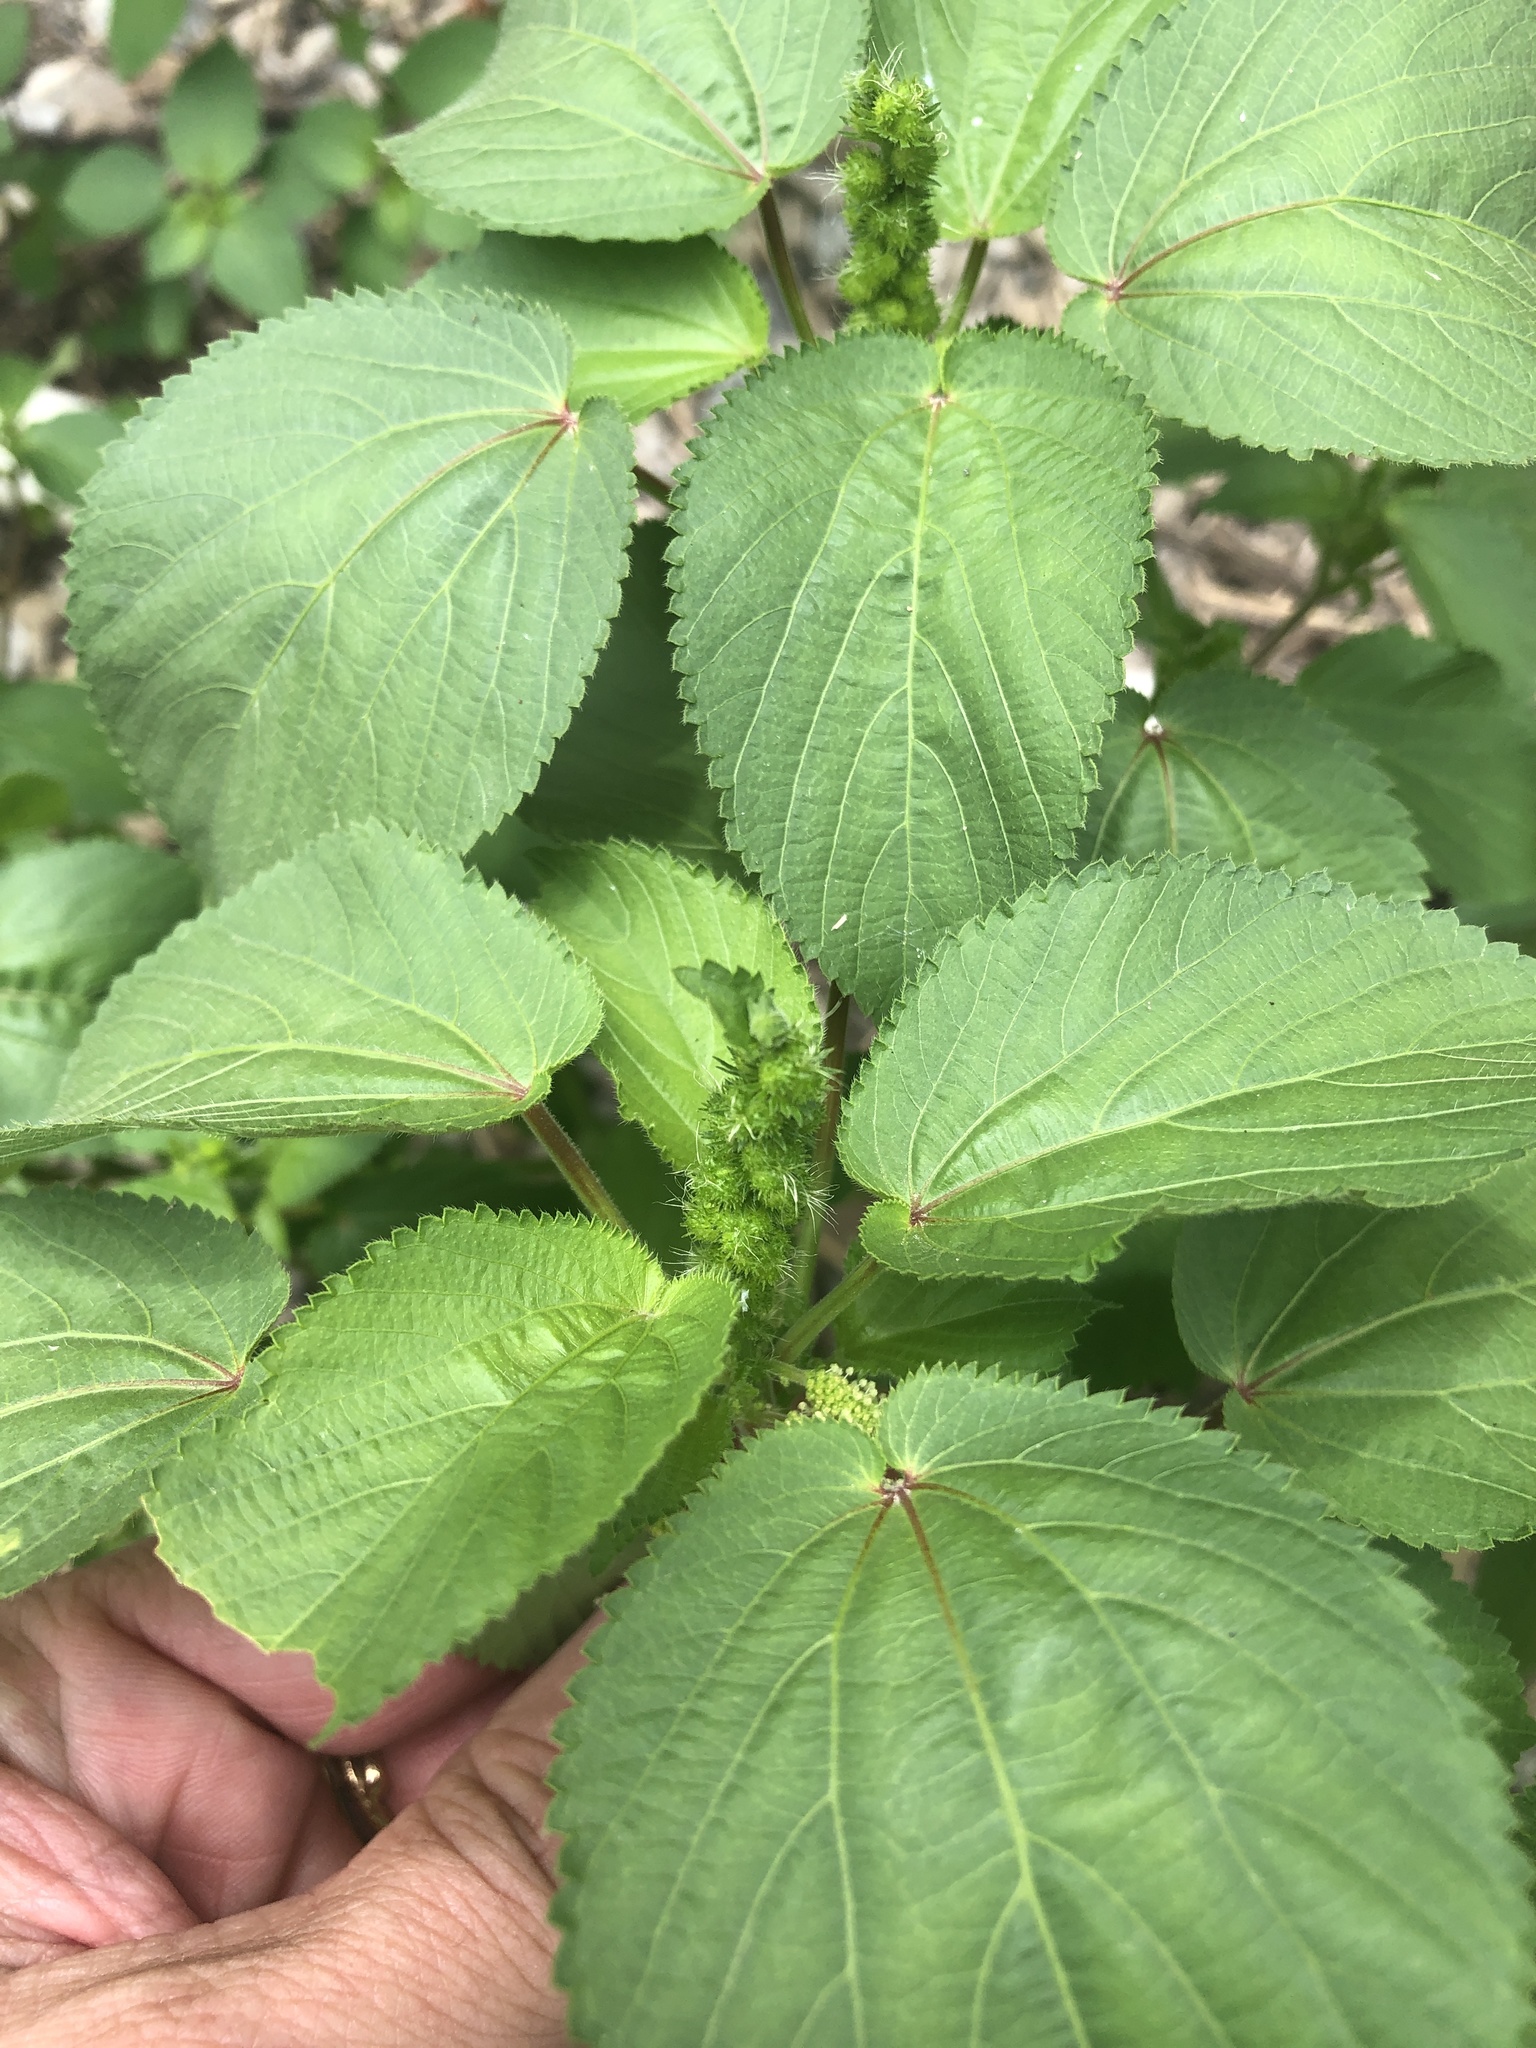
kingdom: Plantae
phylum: Tracheophyta
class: Magnoliopsida
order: Malpighiales
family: Euphorbiaceae
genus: Acalypha
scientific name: Acalypha ostryifolia
